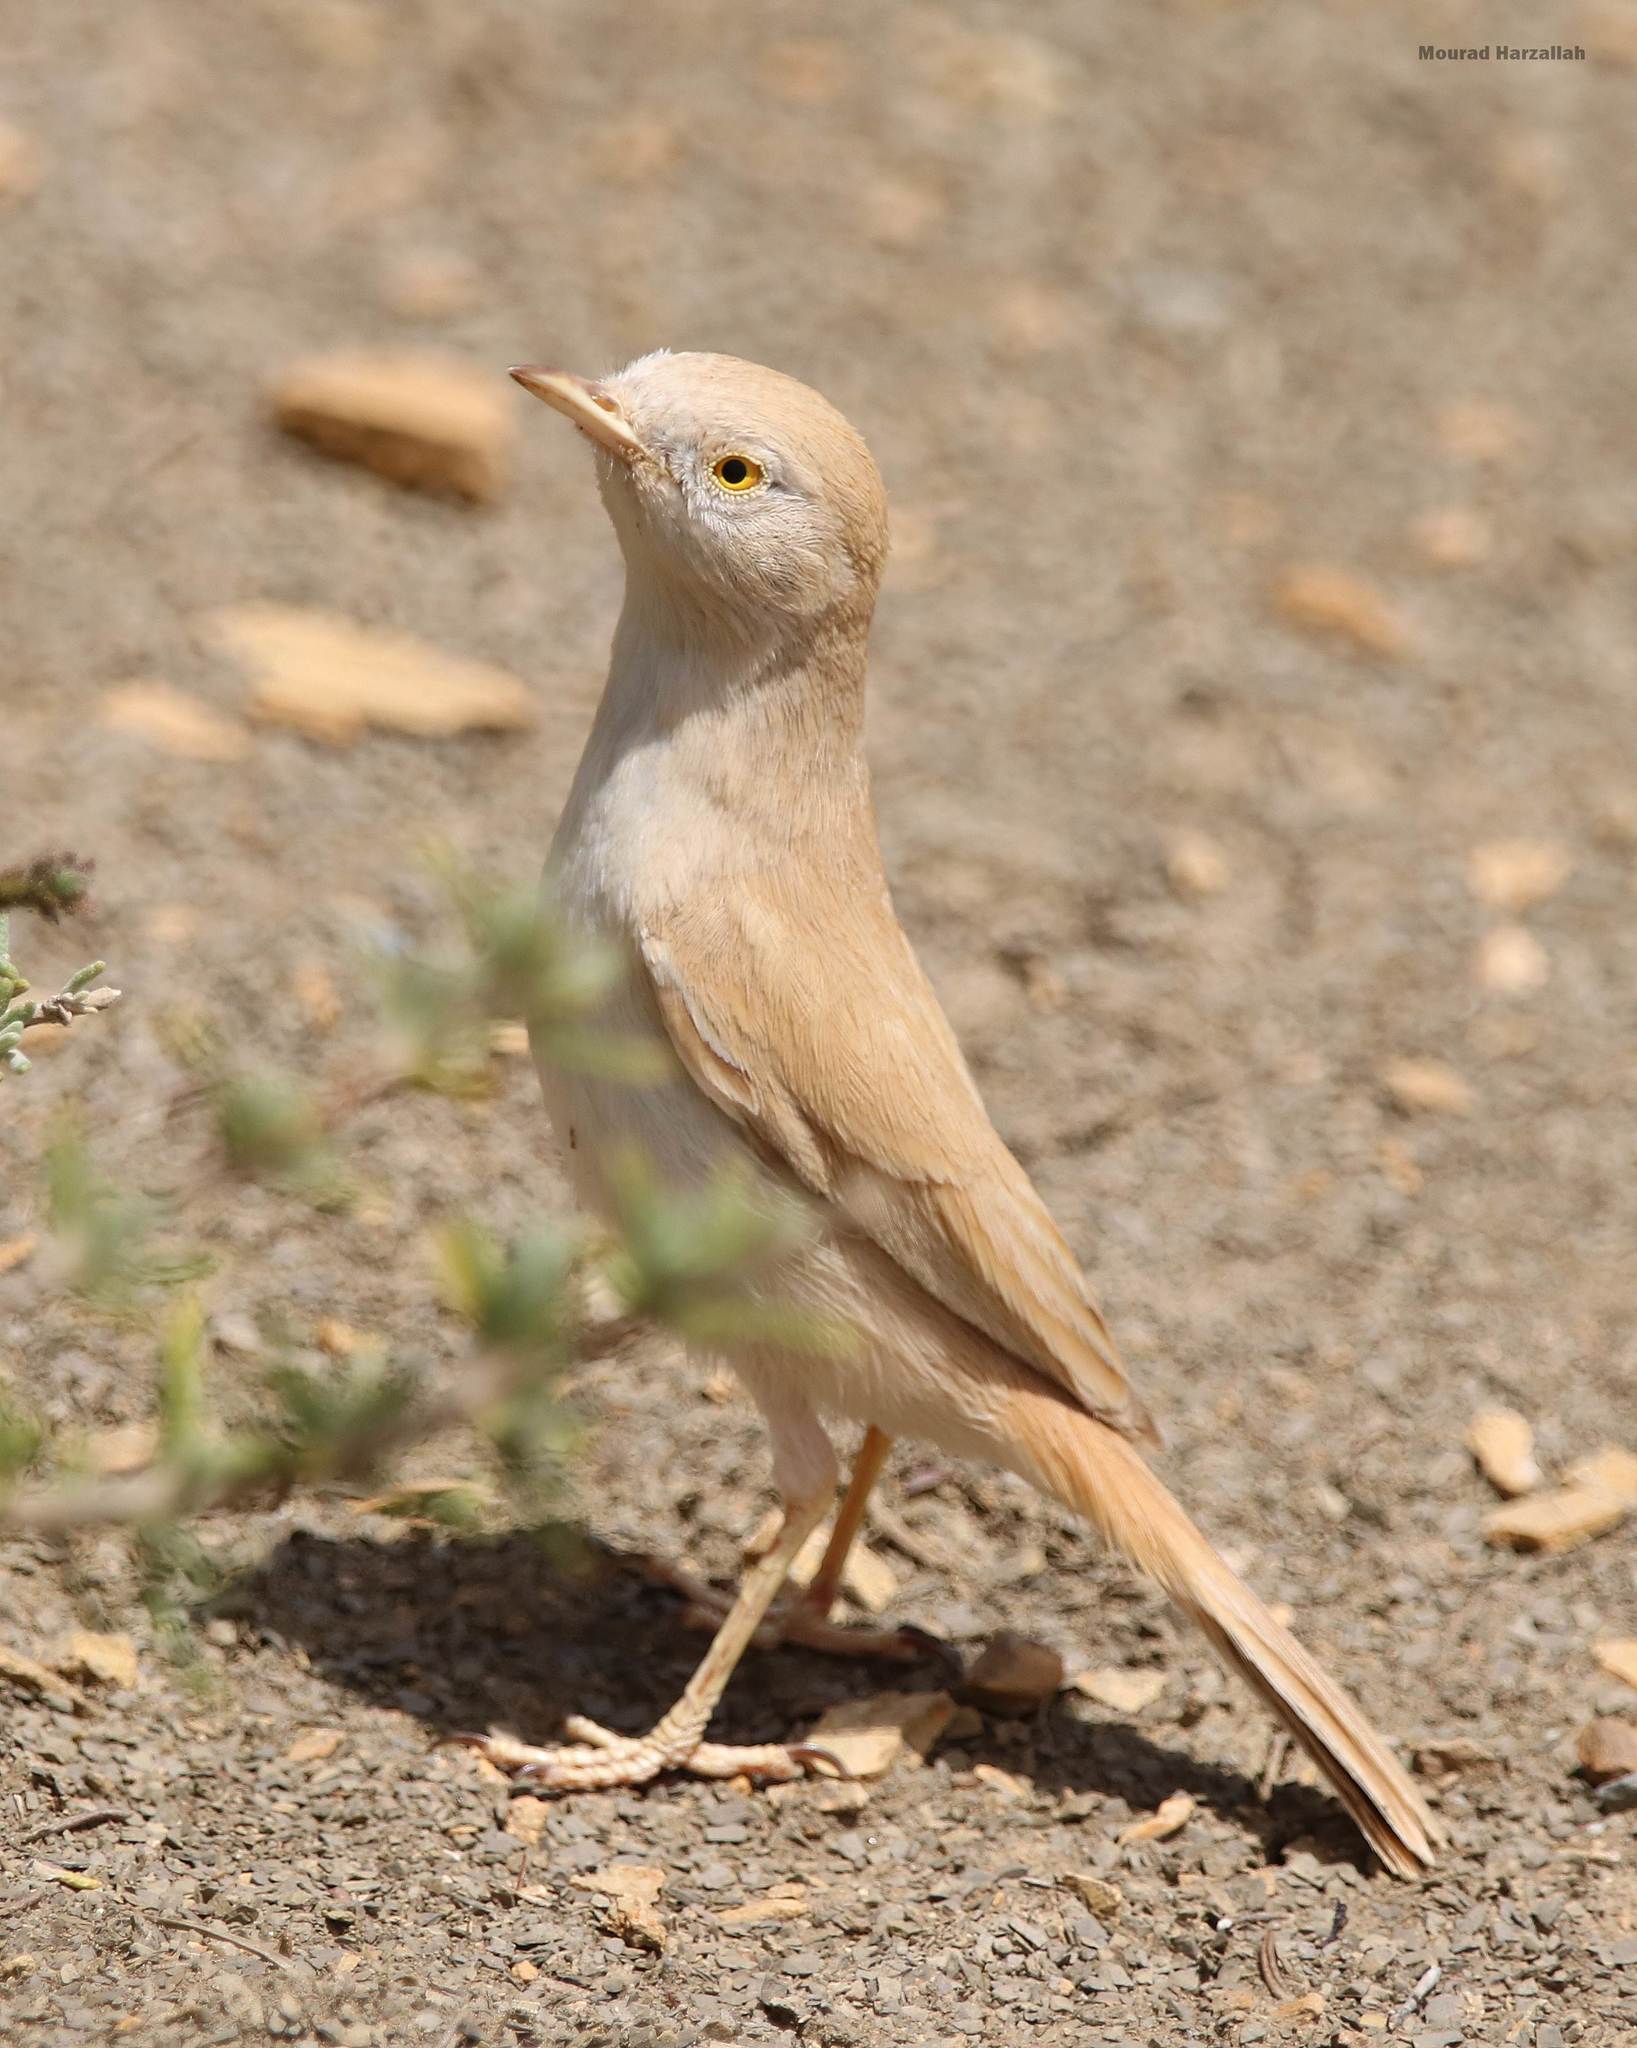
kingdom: Animalia
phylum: Chordata
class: Aves
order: Passeriformes
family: Sylviidae
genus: Sylvia
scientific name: Sylvia deserti
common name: African desert warbler
